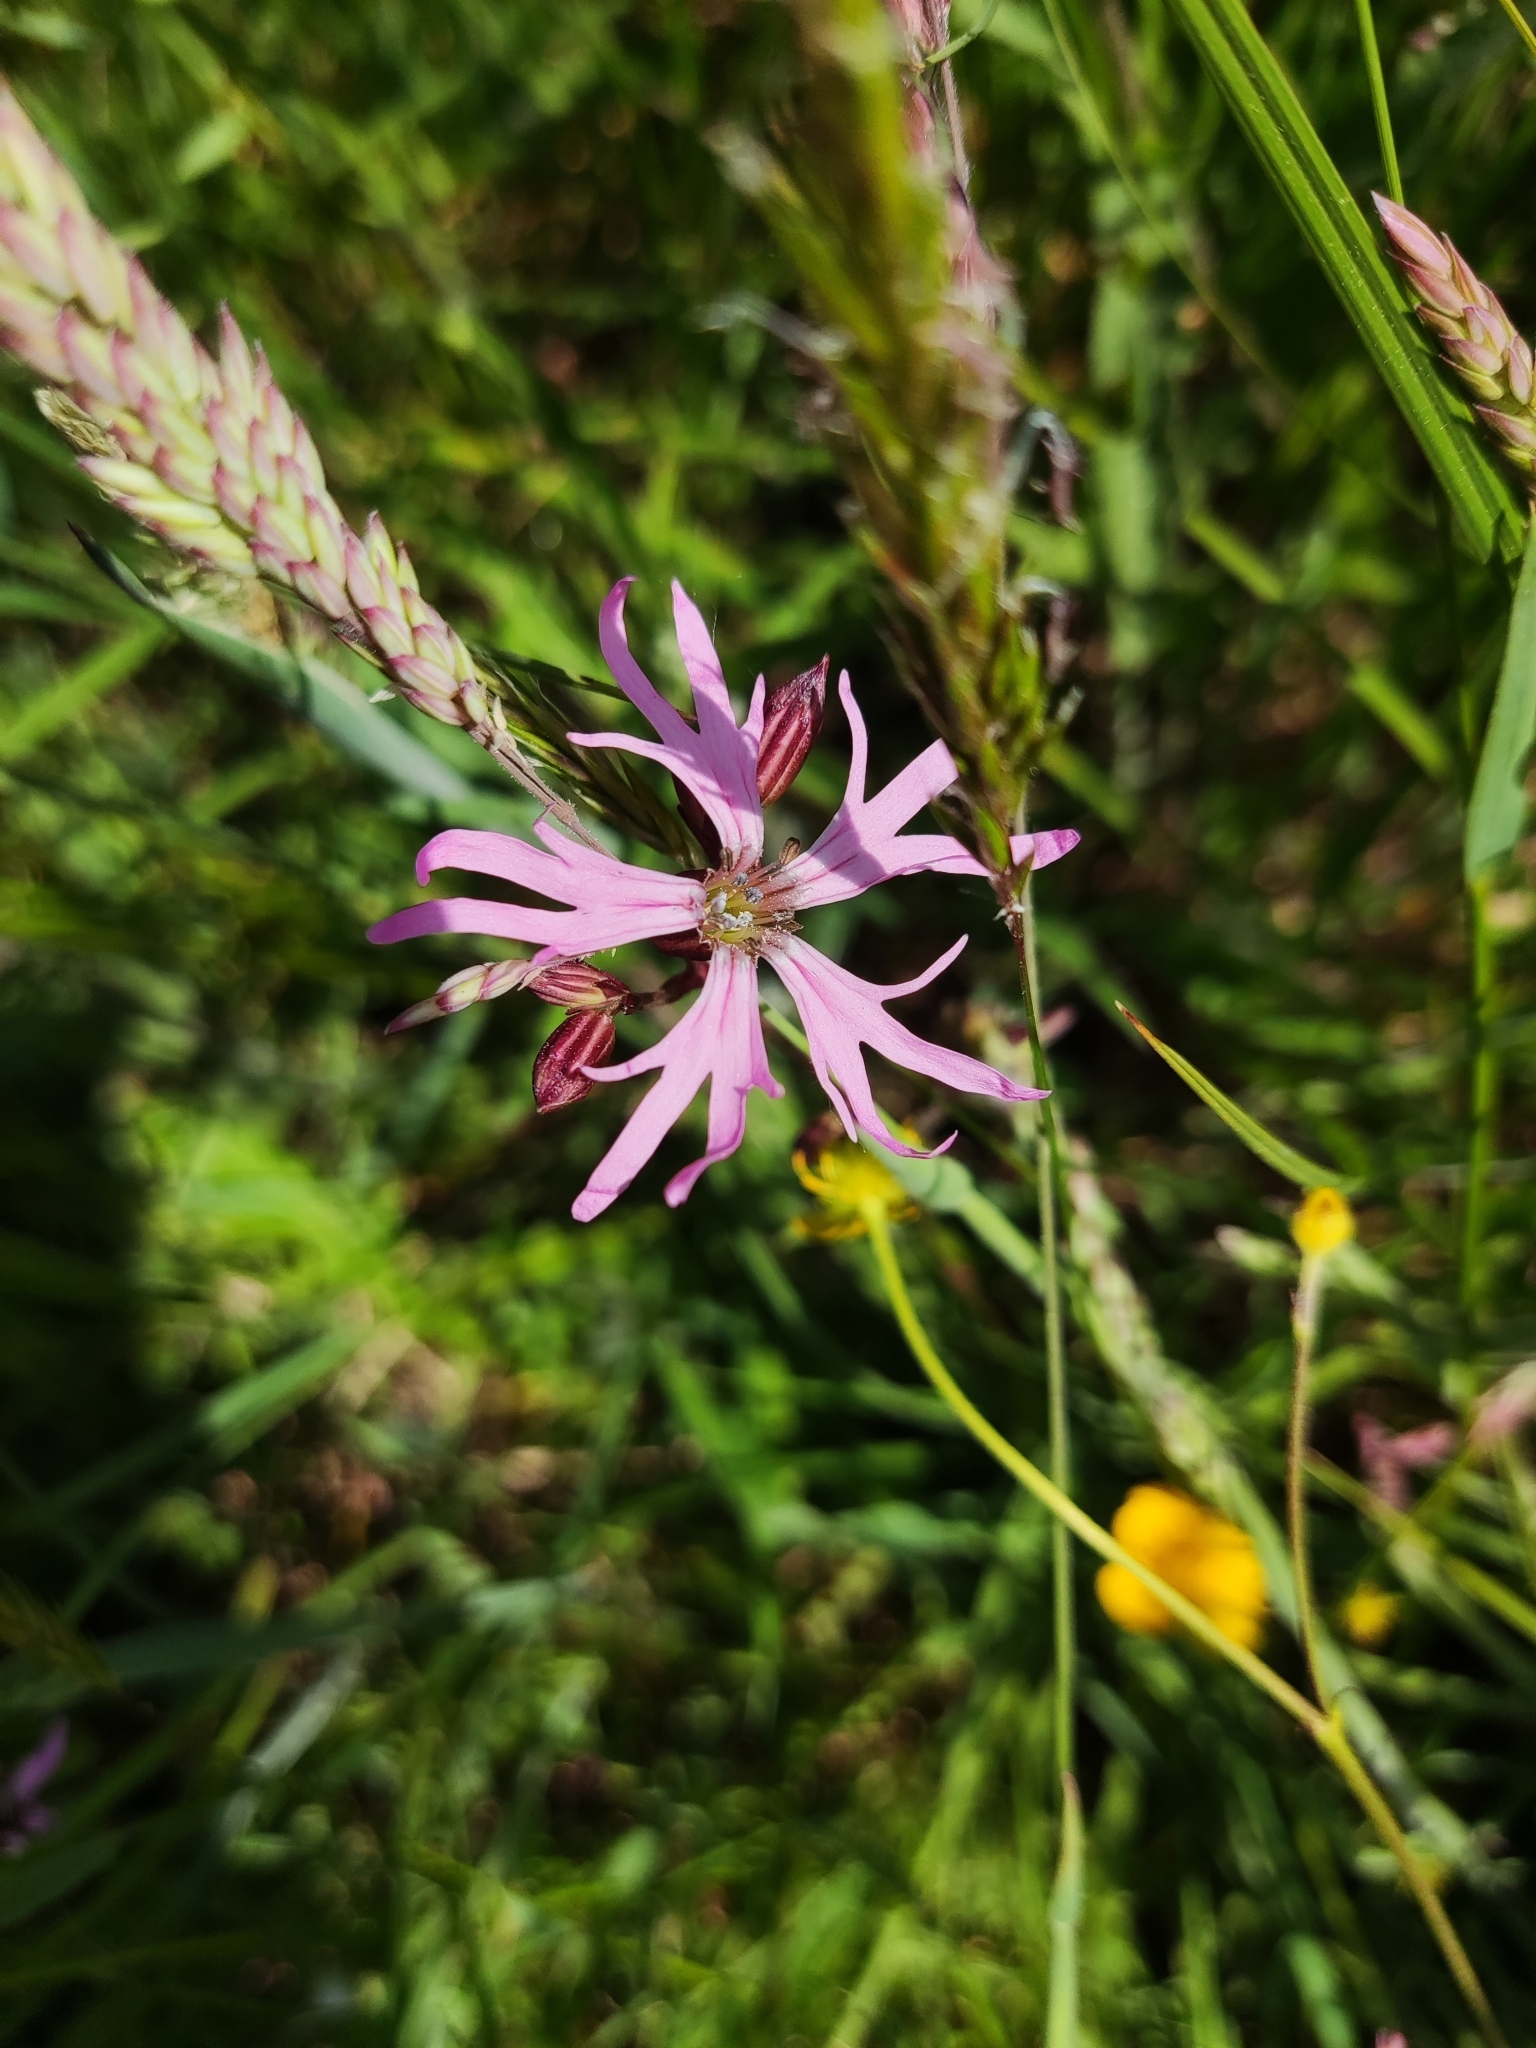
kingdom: Plantae
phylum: Tracheophyta
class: Magnoliopsida
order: Caryophyllales
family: Caryophyllaceae
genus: Silene
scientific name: Silene flos-cuculi
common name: Ragged-robin
